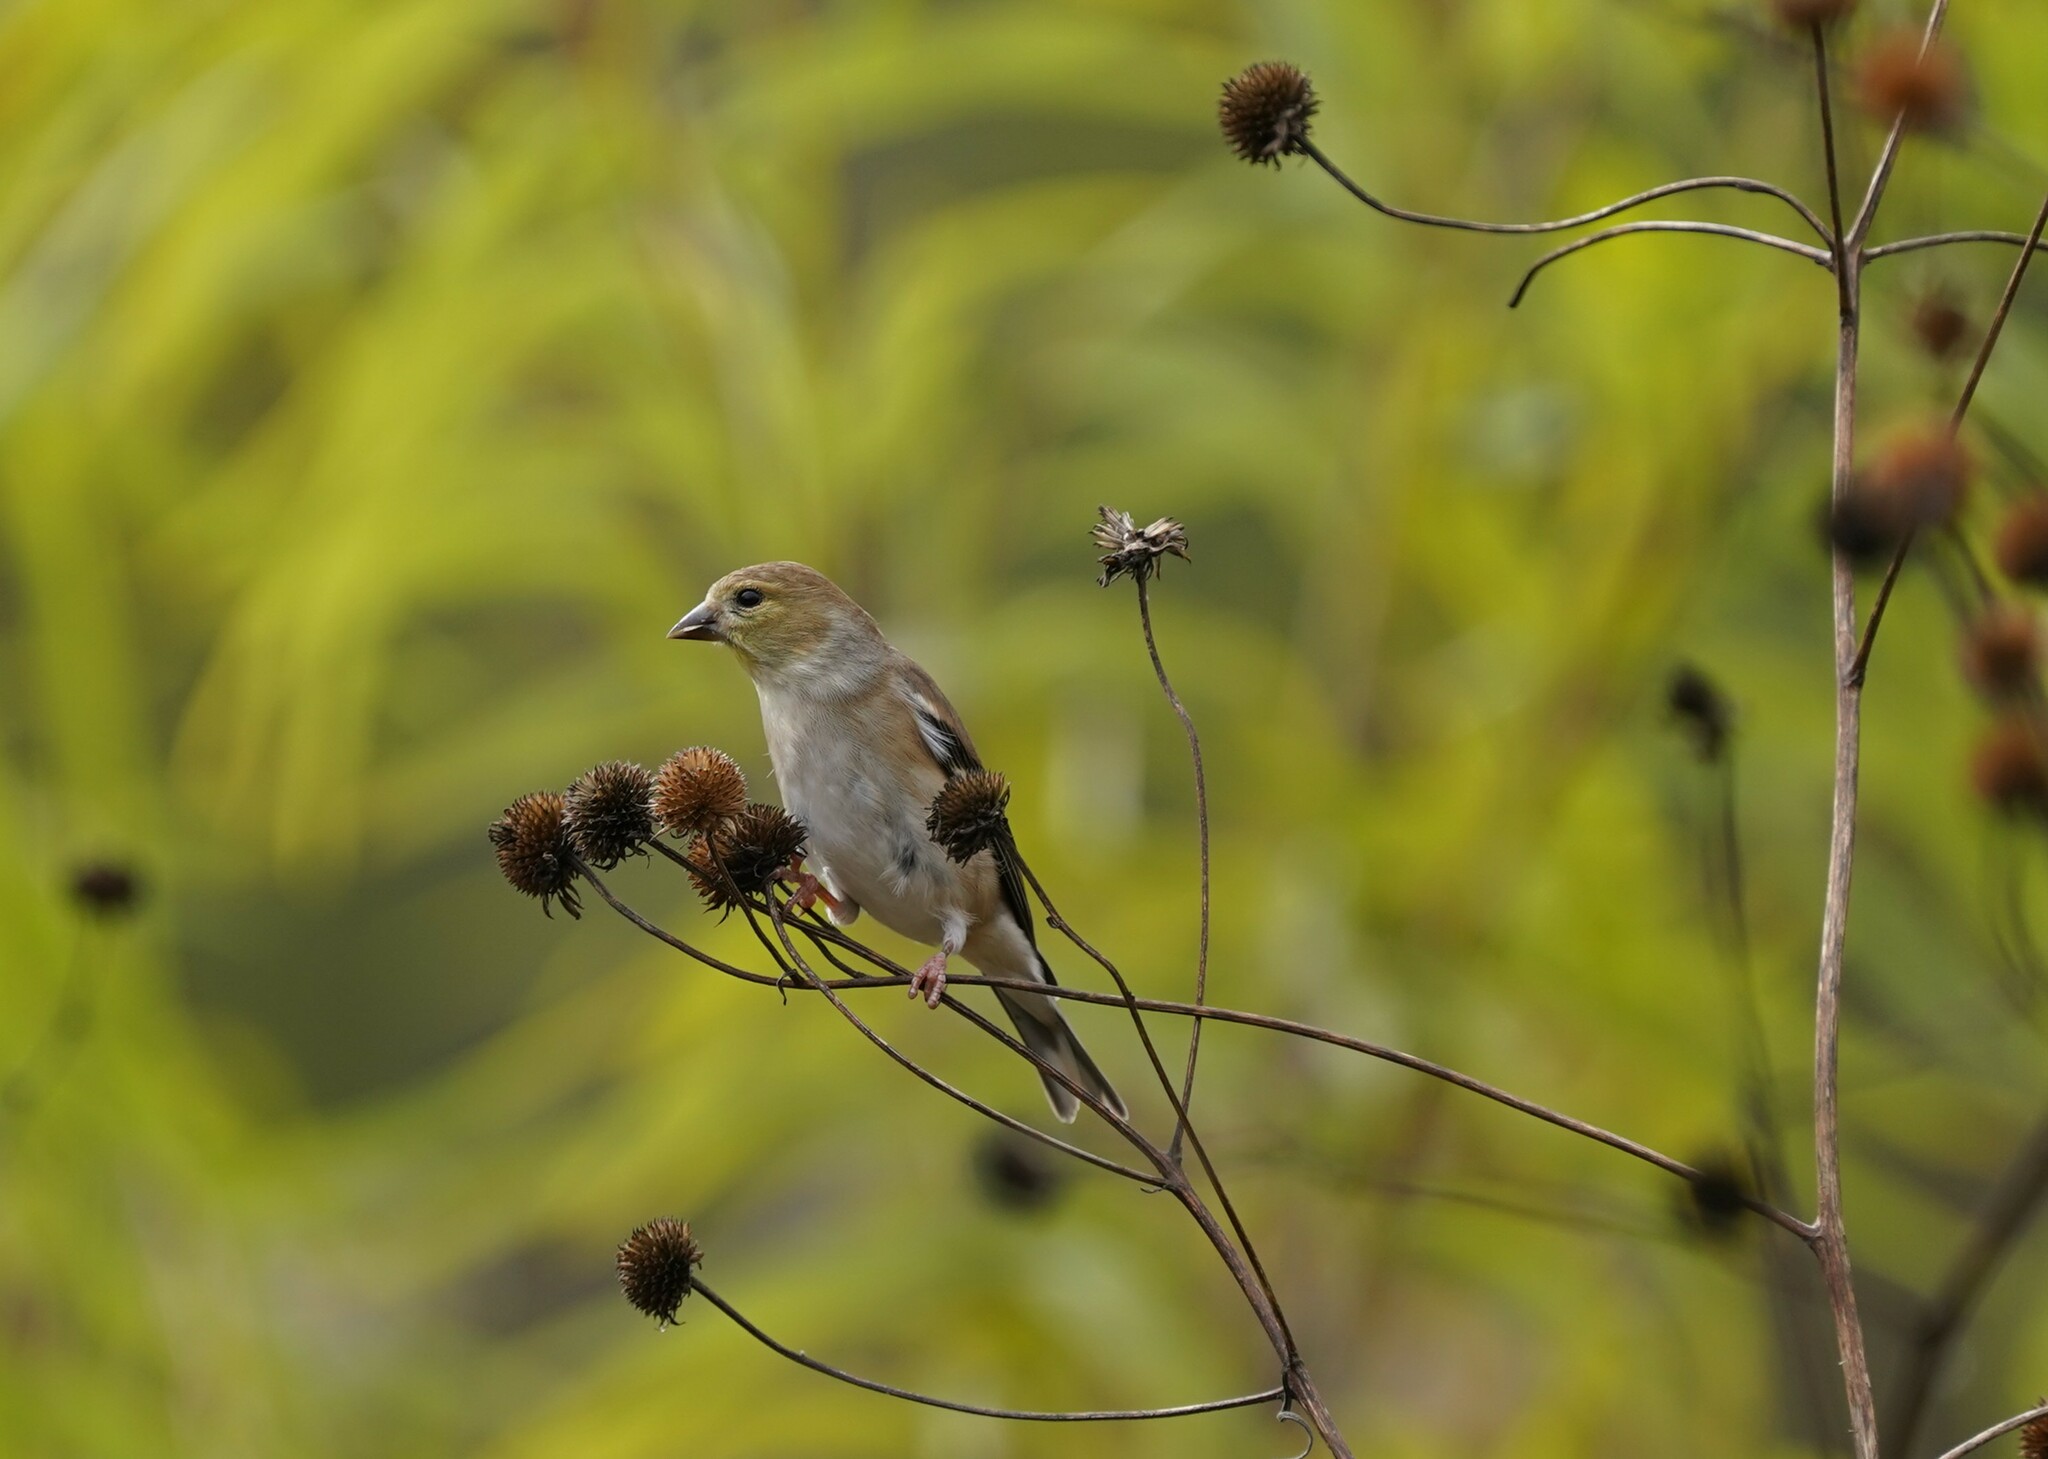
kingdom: Animalia
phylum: Chordata
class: Aves
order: Passeriformes
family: Fringillidae
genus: Spinus
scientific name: Spinus tristis
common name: American goldfinch
